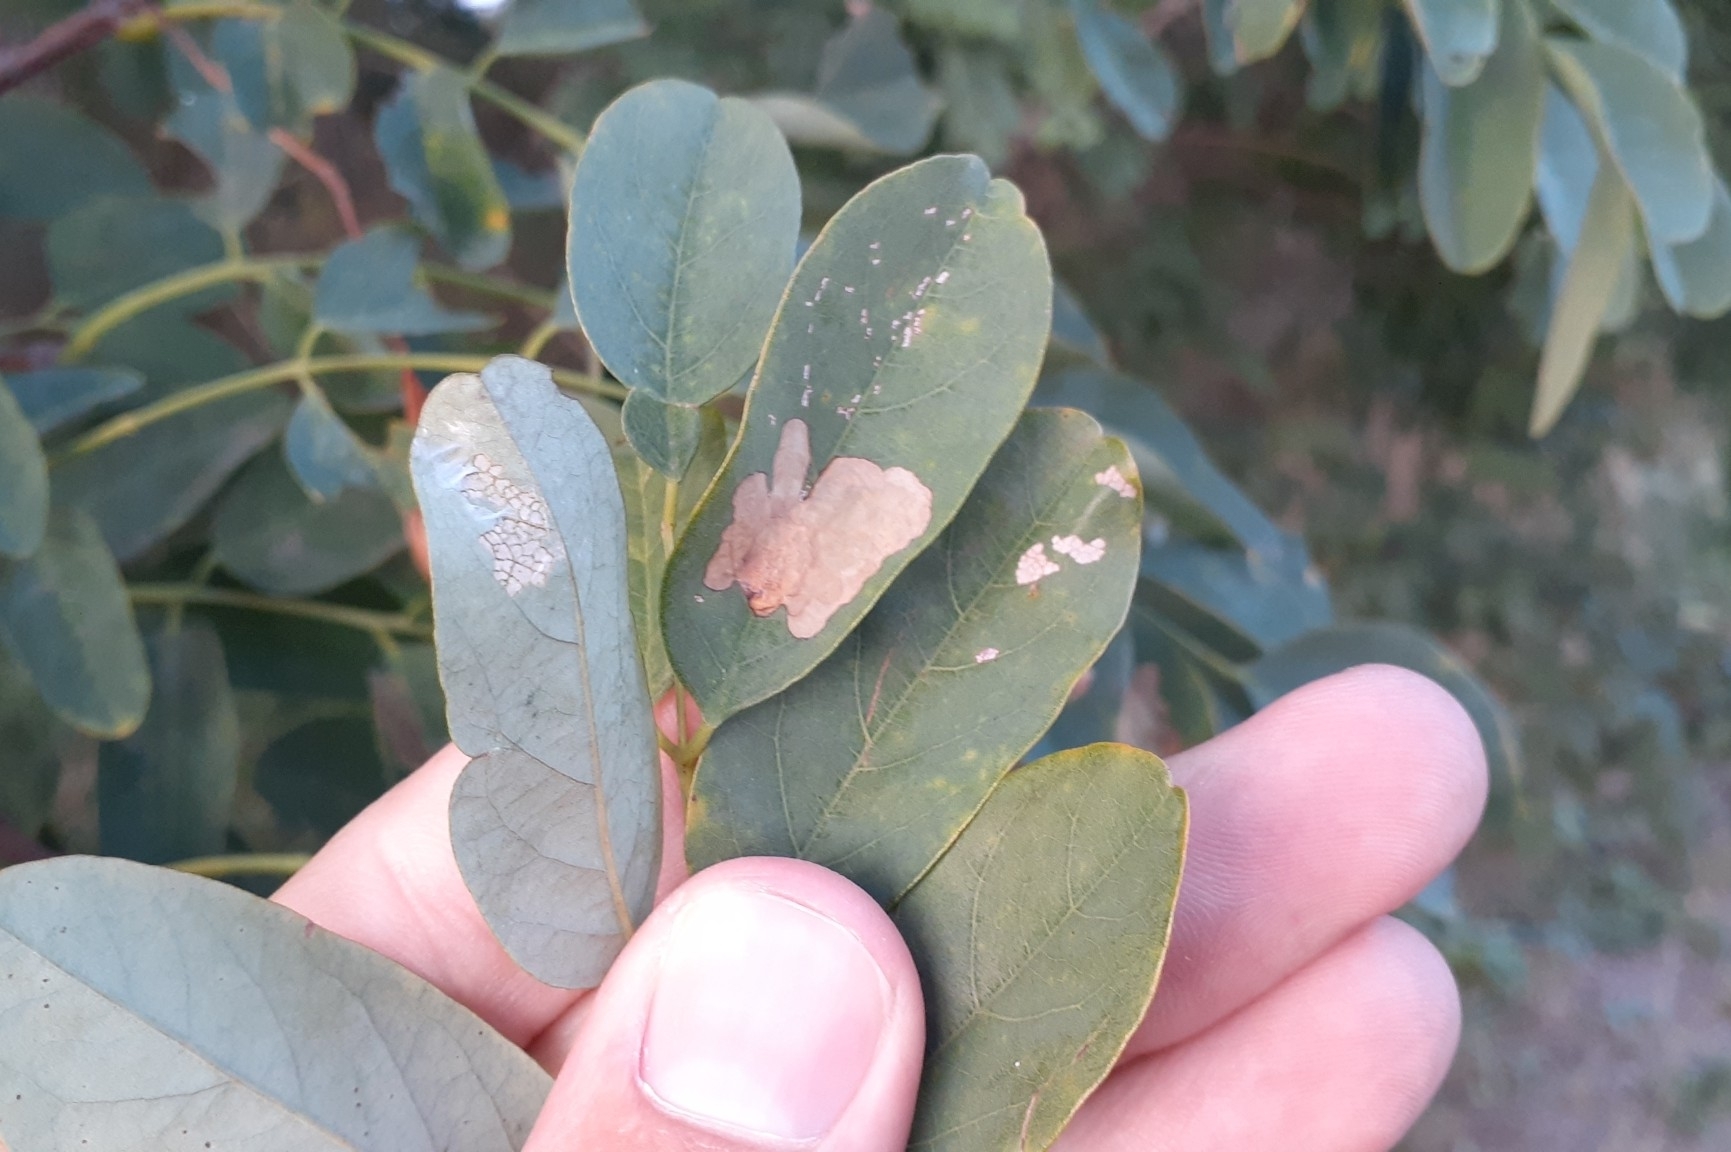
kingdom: Animalia
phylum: Arthropoda
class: Insecta
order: Lepidoptera
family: Gracillariidae
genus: Parectopa
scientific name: Parectopa robiniella
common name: Locust digitate leafminer
